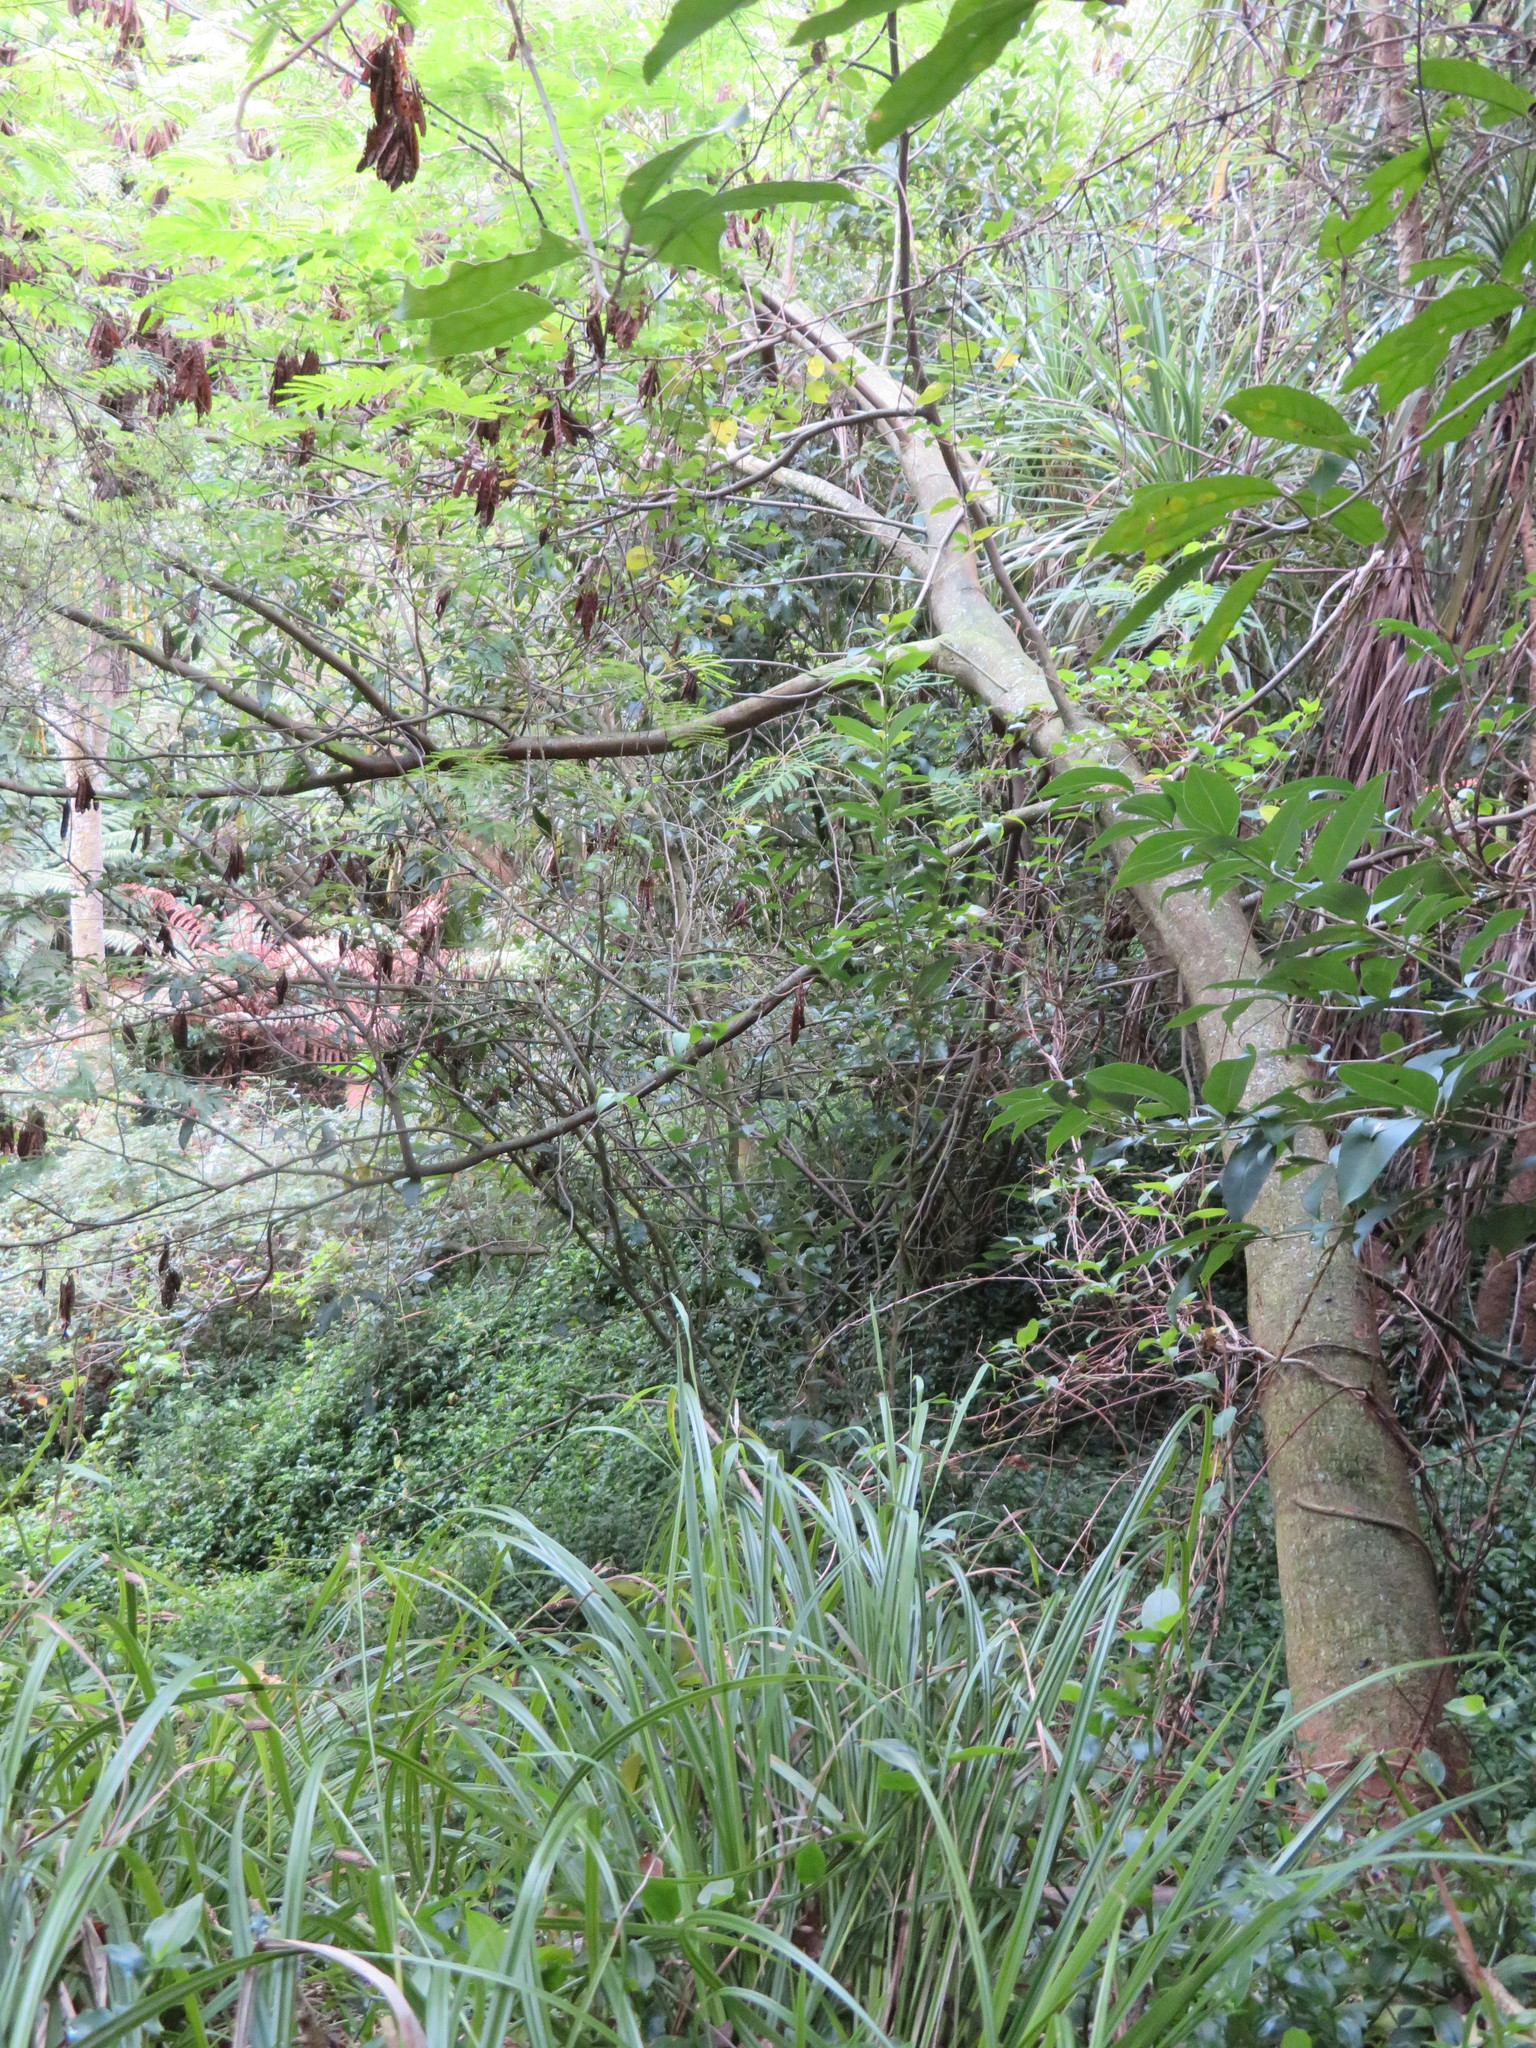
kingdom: Plantae
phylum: Tracheophyta
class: Magnoliopsida
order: Dipsacales
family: Caprifoliaceae
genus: Lonicera
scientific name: Lonicera japonica
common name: Japanese honeysuckle
